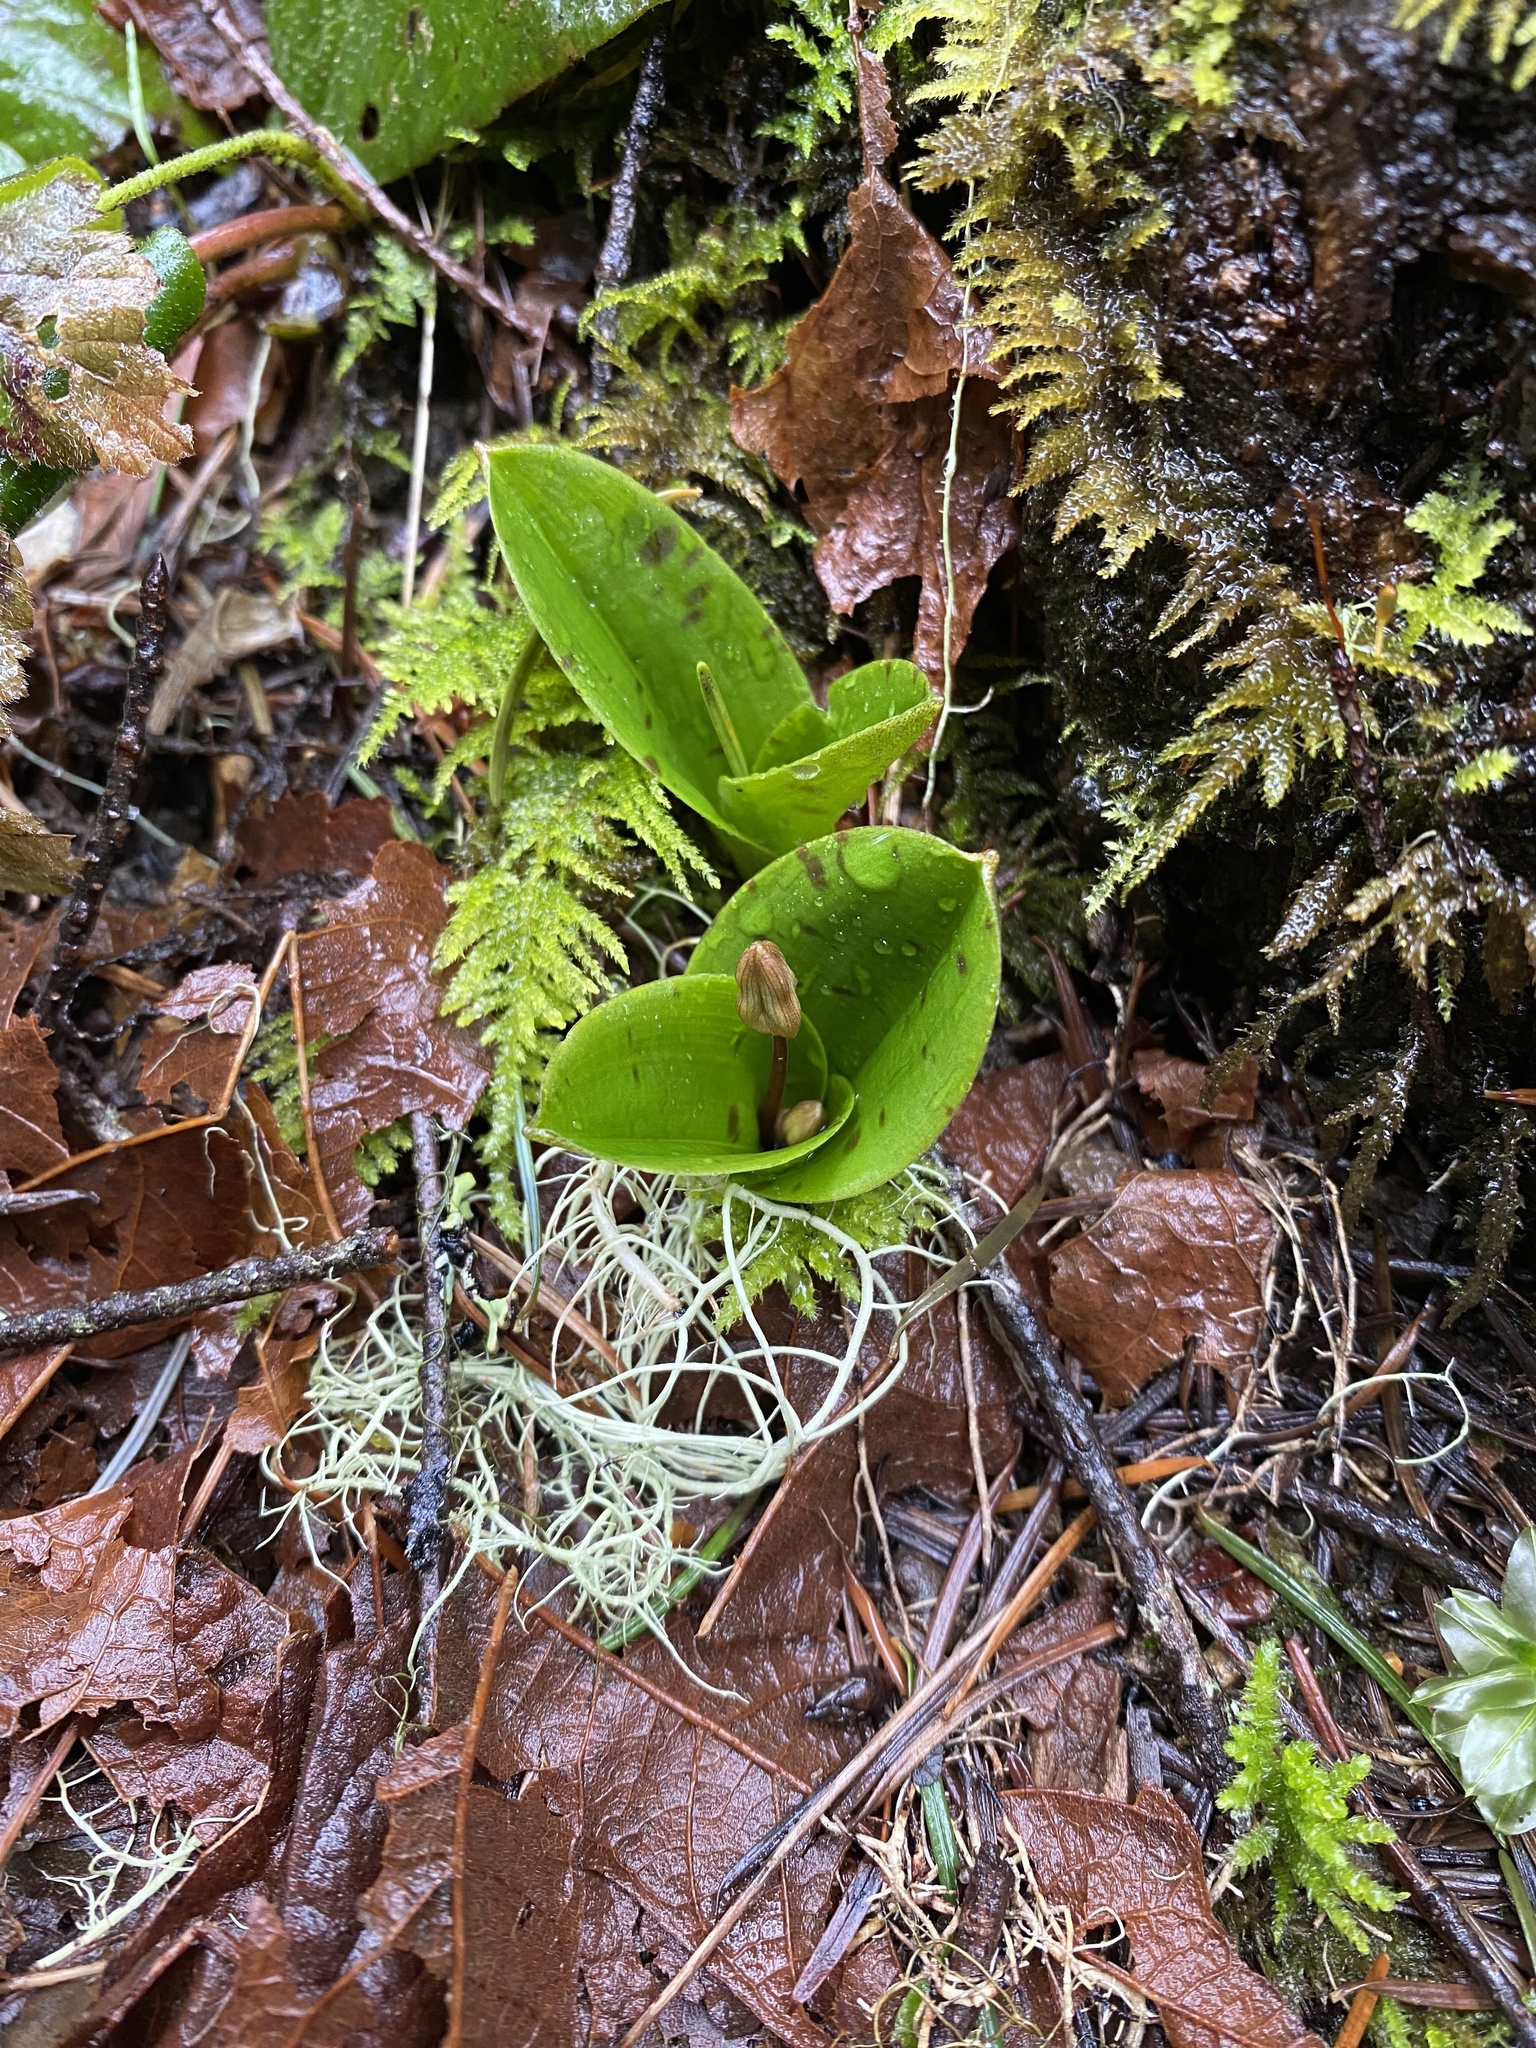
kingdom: Plantae
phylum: Tracheophyta
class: Liliopsida
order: Liliales
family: Liliaceae
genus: Scoliopus
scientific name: Scoliopus hallii
